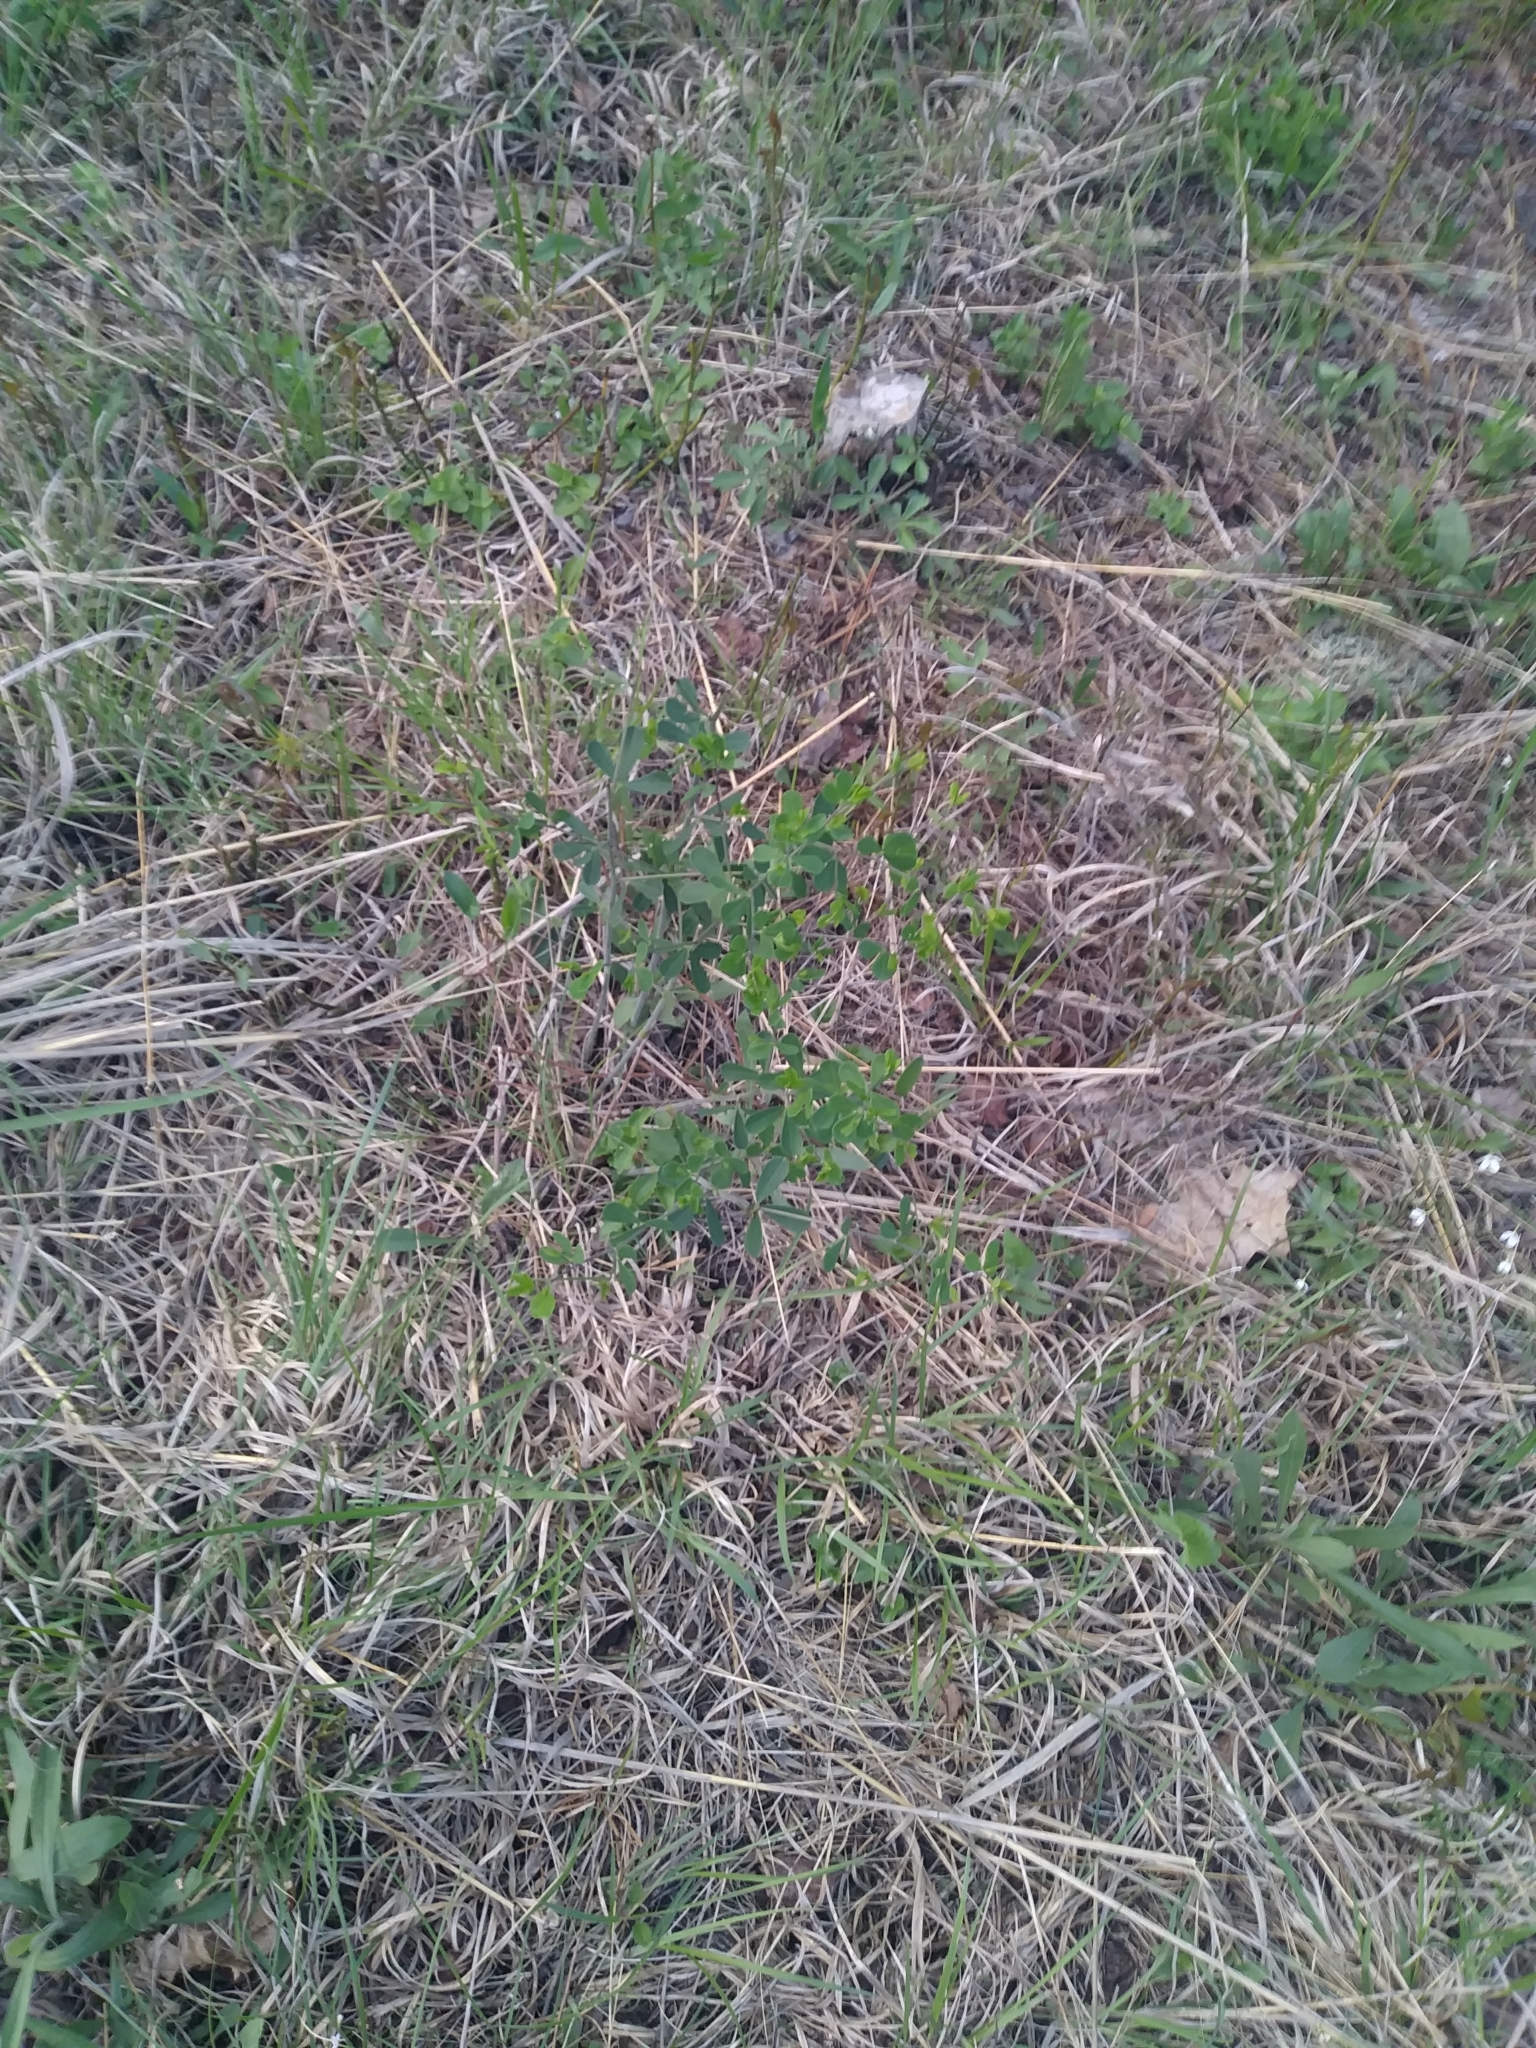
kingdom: Plantae
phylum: Tracheophyta
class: Magnoliopsida
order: Fabales
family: Fabaceae
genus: Baptisia
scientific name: Baptisia tinctoria
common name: Wild indigo
